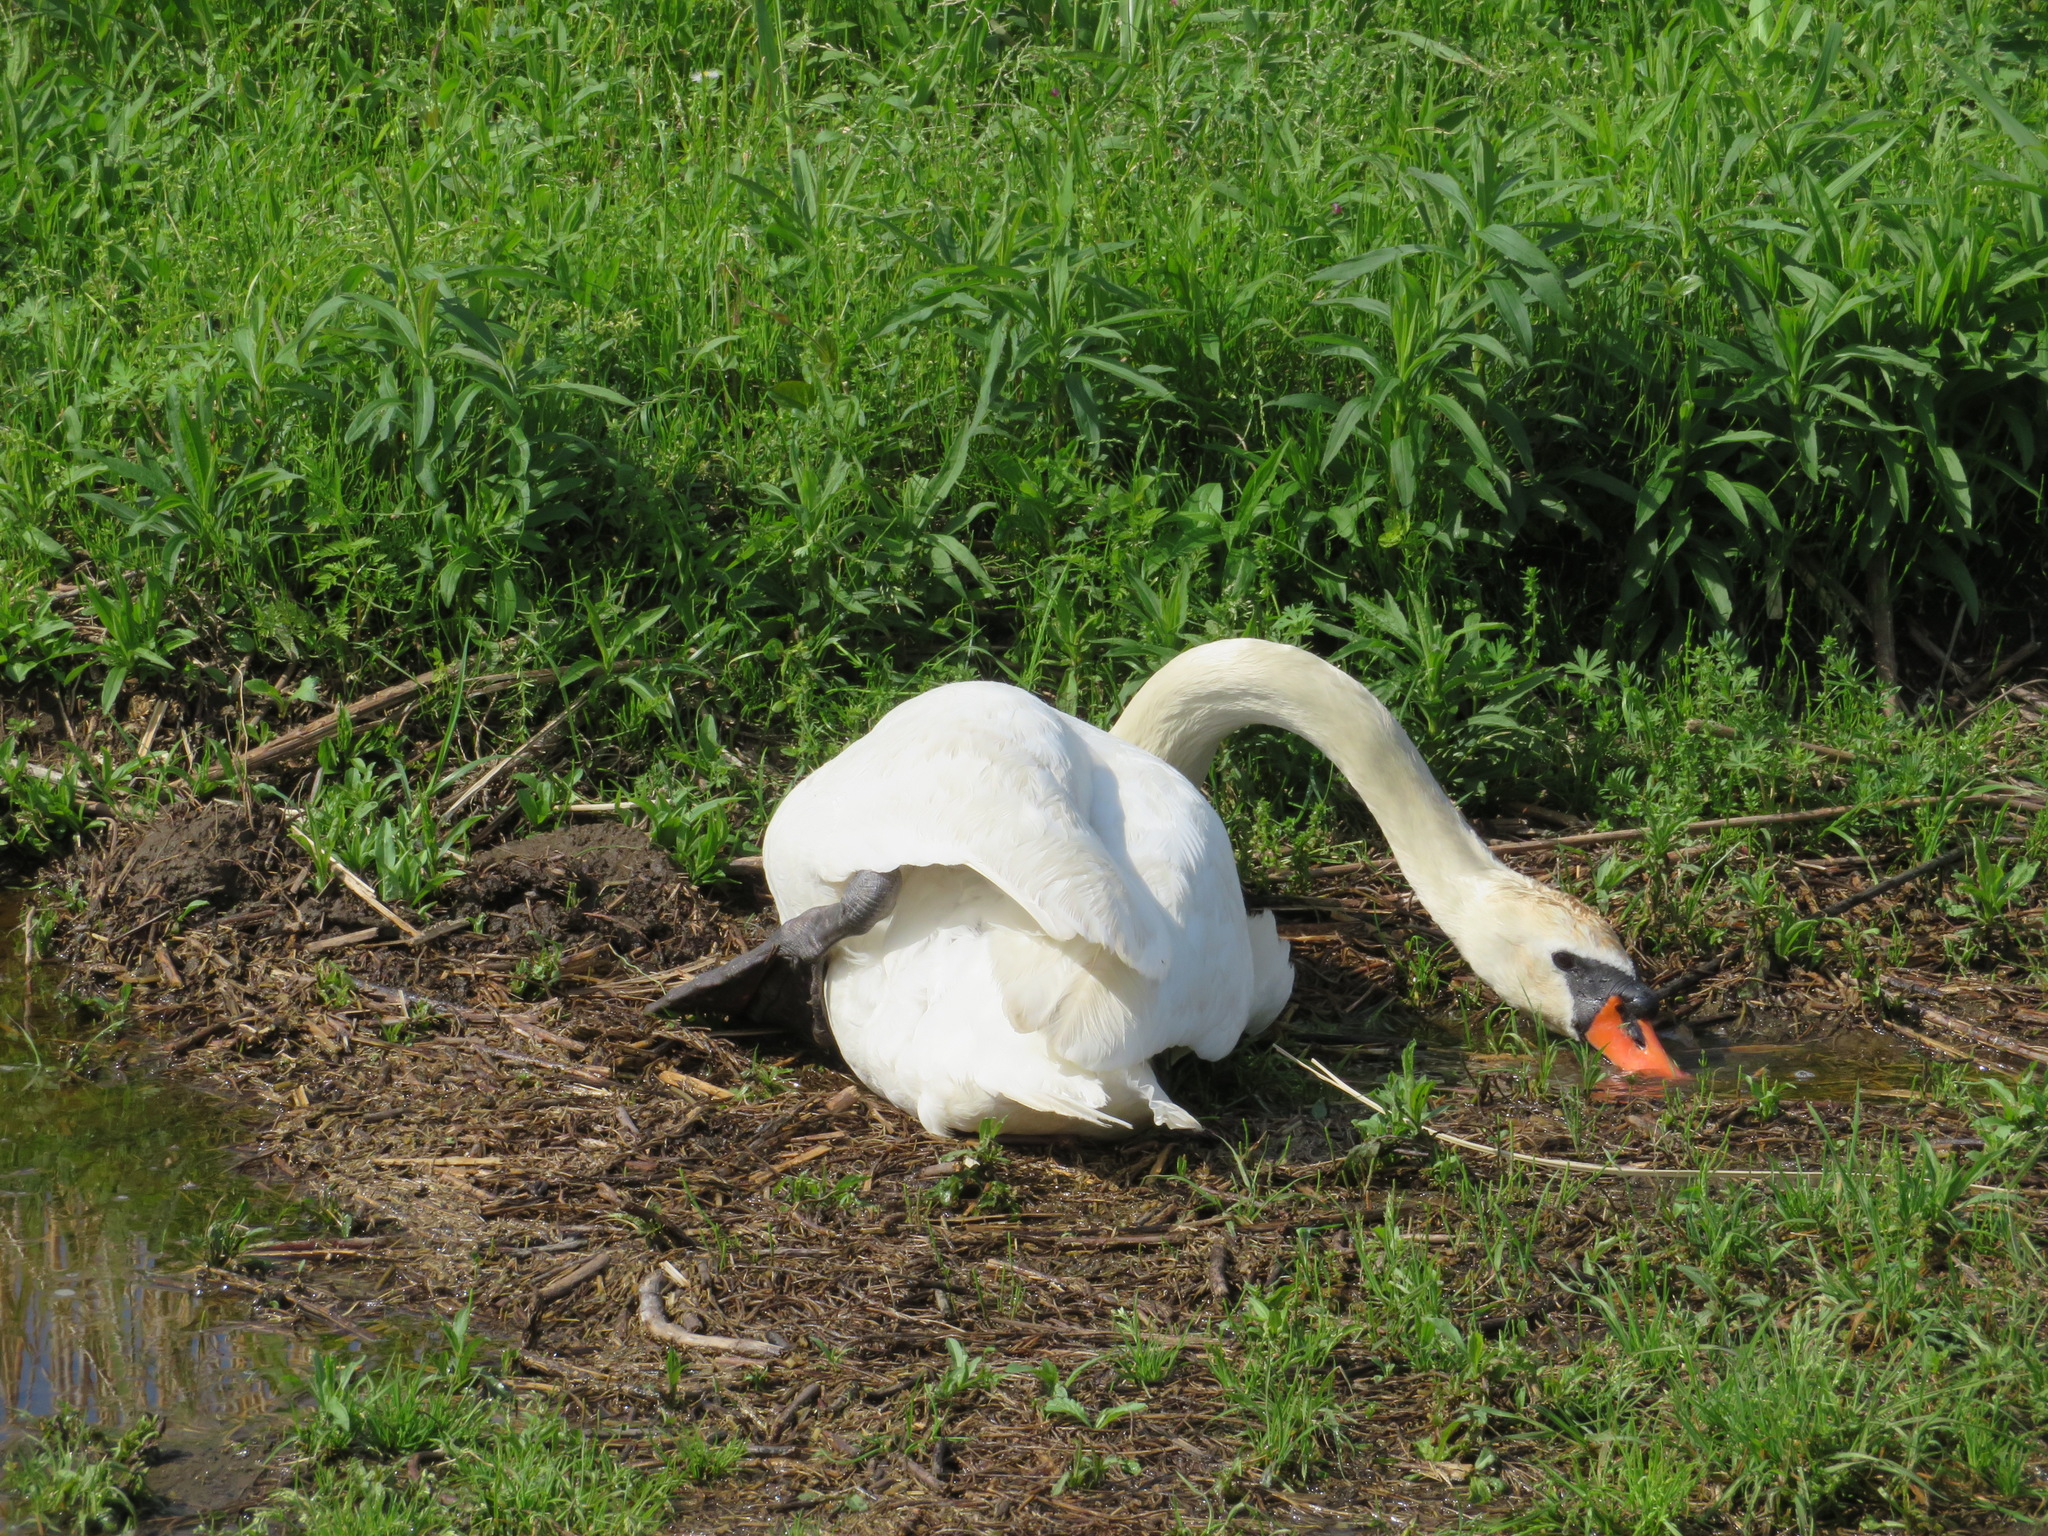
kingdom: Animalia
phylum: Chordata
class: Aves
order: Anseriformes
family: Anatidae
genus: Cygnus
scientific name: Cygnus olor
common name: Mute swan
